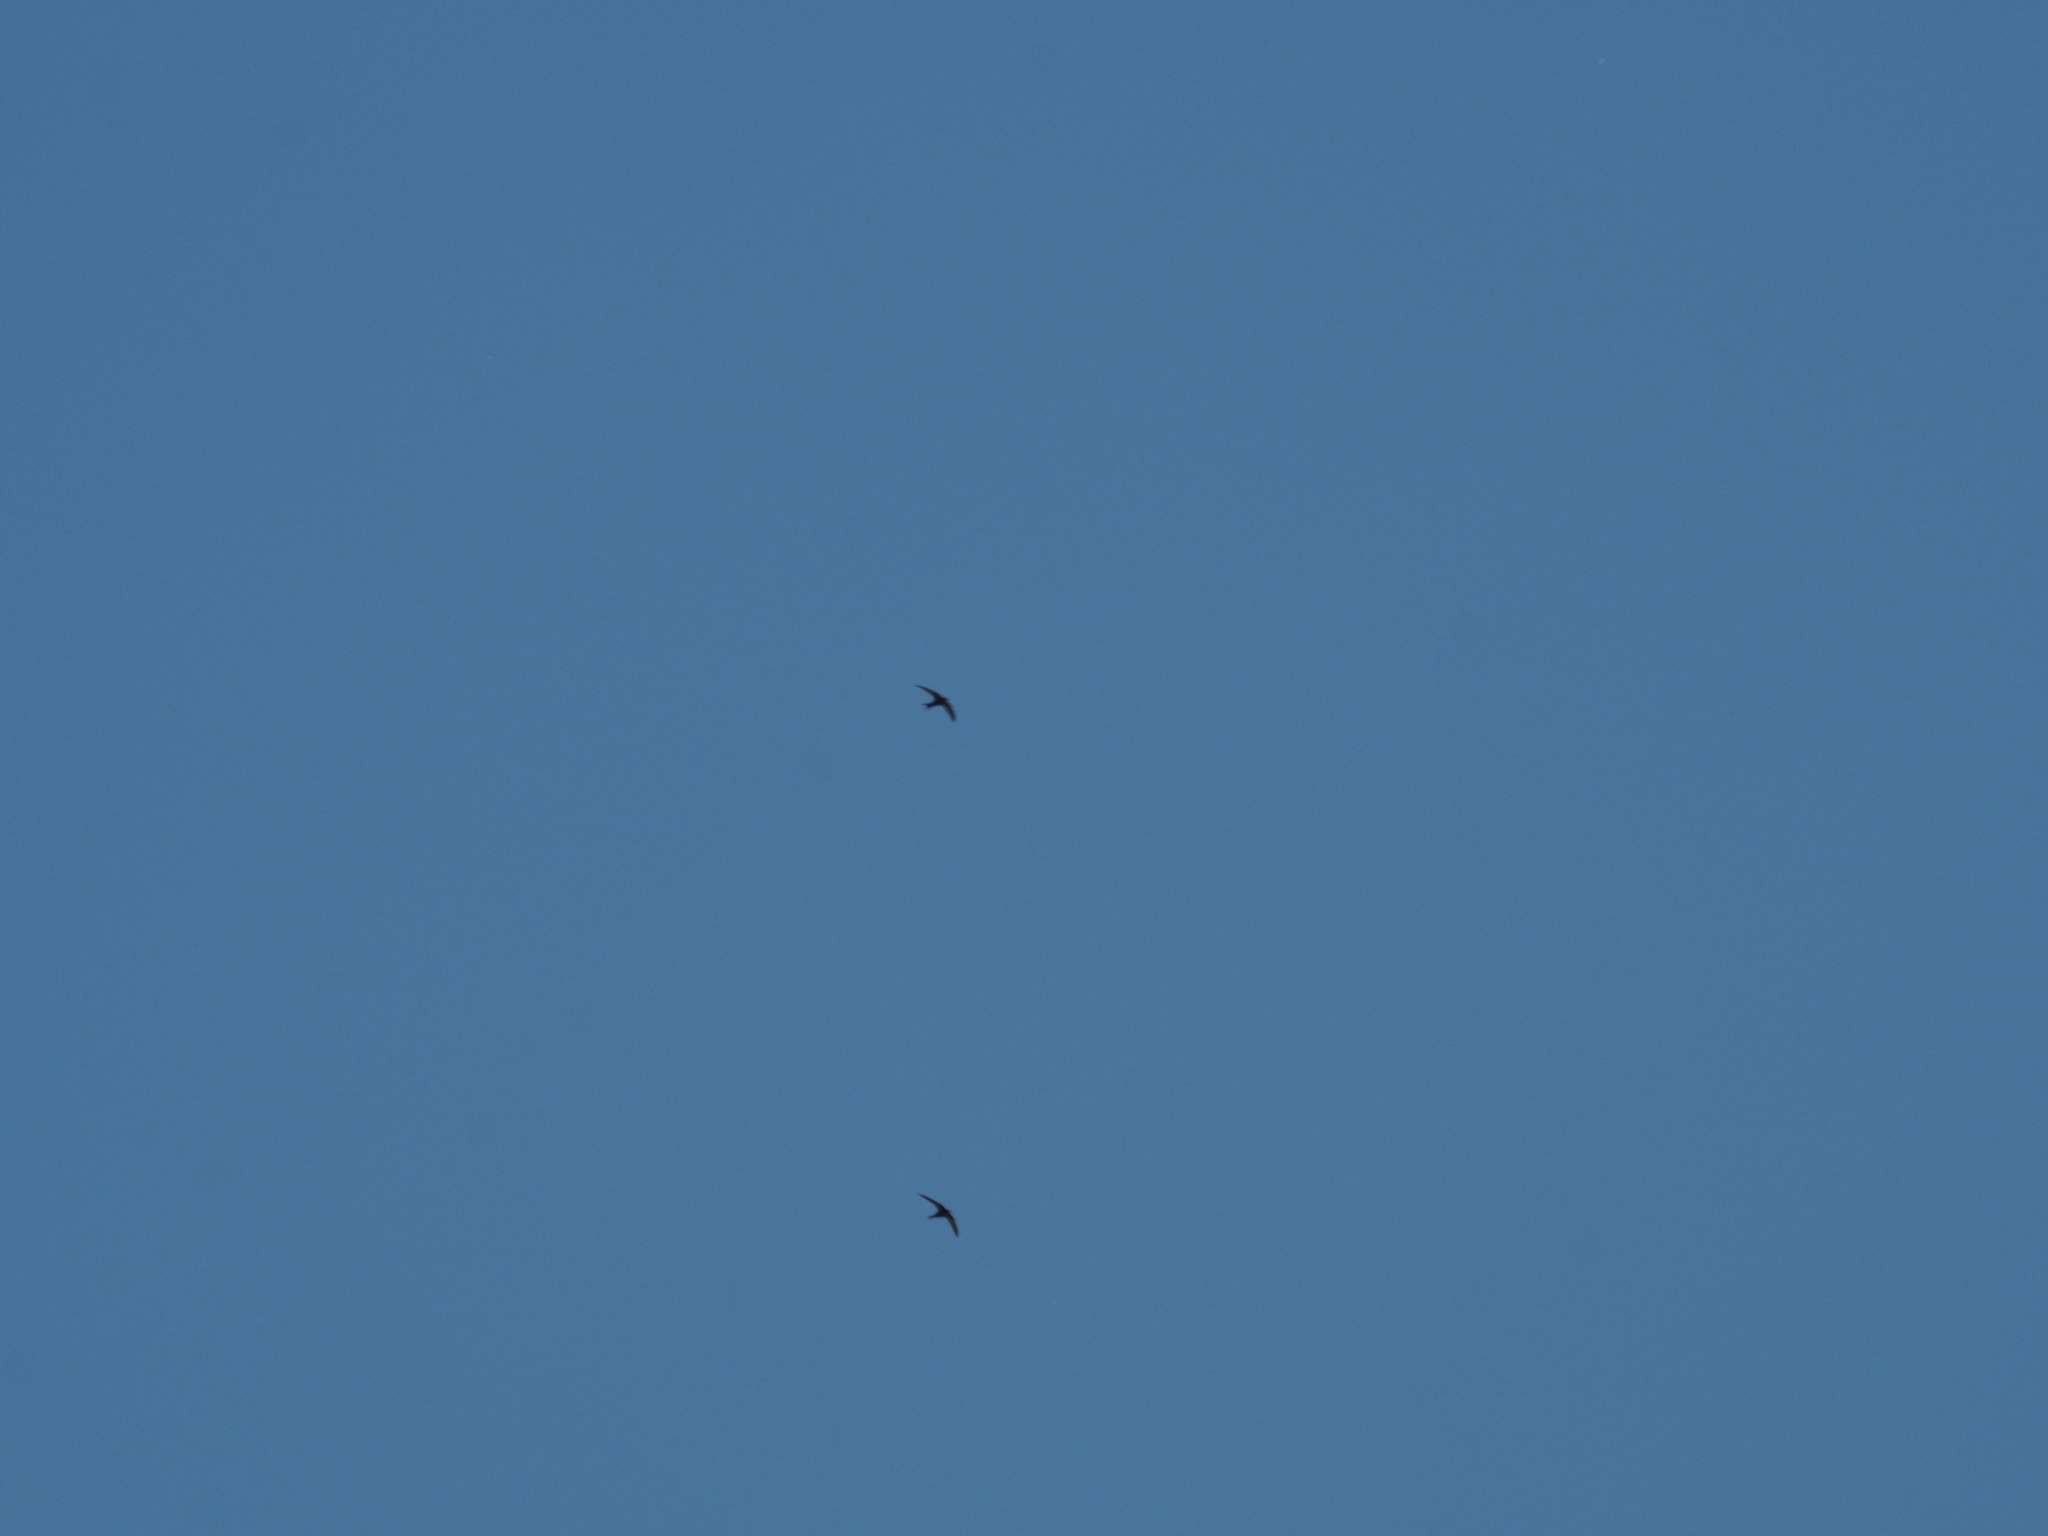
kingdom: Animalia
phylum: Chordata
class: Aves
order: Apodiformes
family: Apodidae
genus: Apus
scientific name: Apus apus
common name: Common swift
